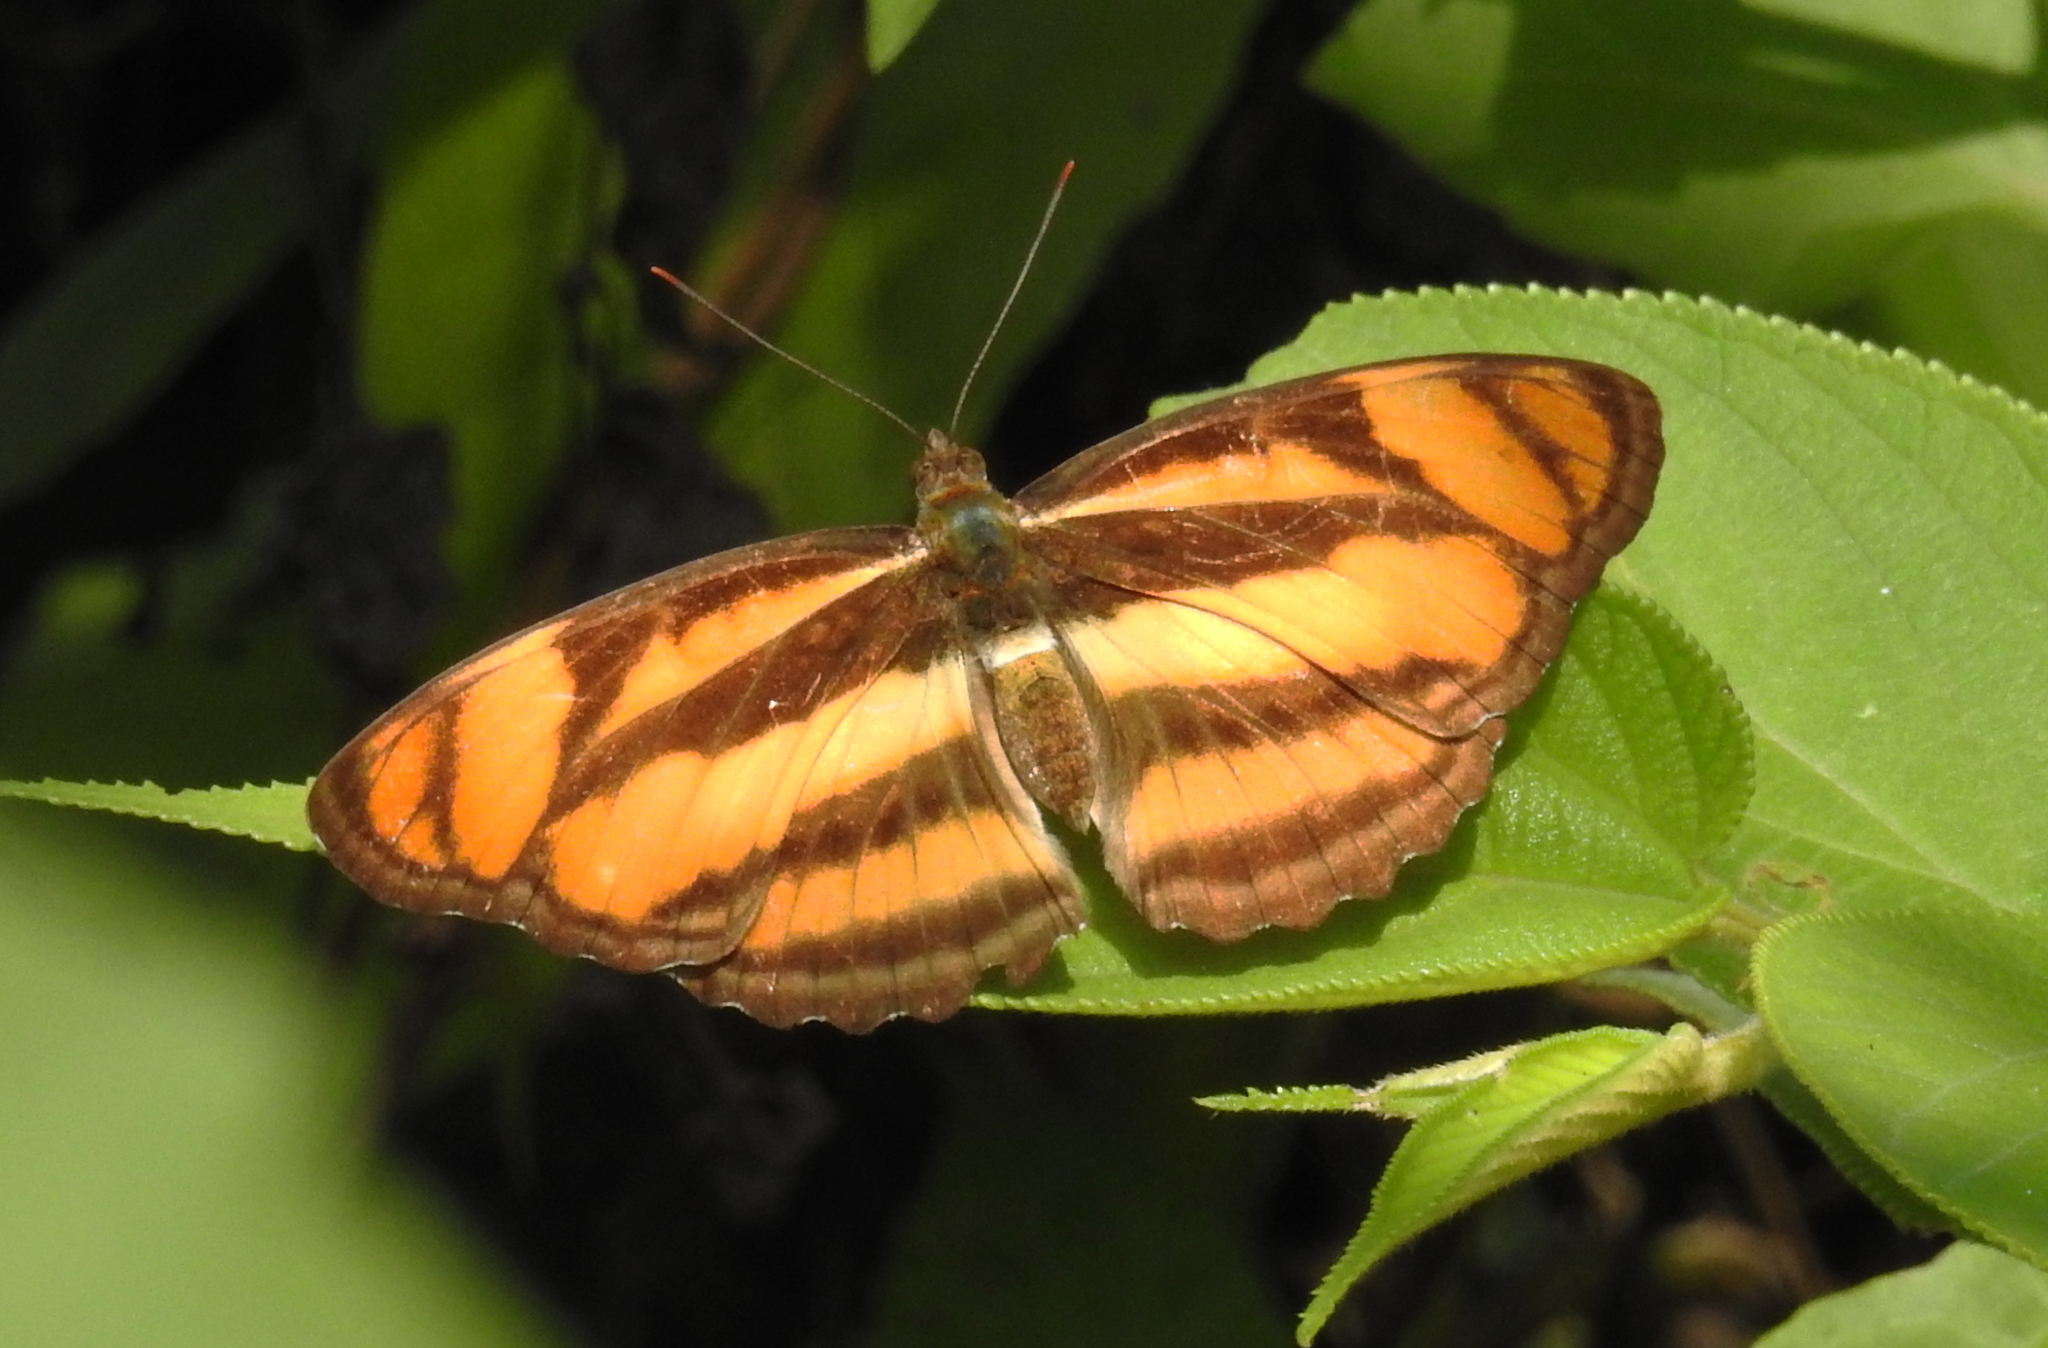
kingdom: Animalia
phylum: Arthropoda
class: Insecta
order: Lepidoptera
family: Nymphalidae
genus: Parathyma
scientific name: Parathyma nefte
